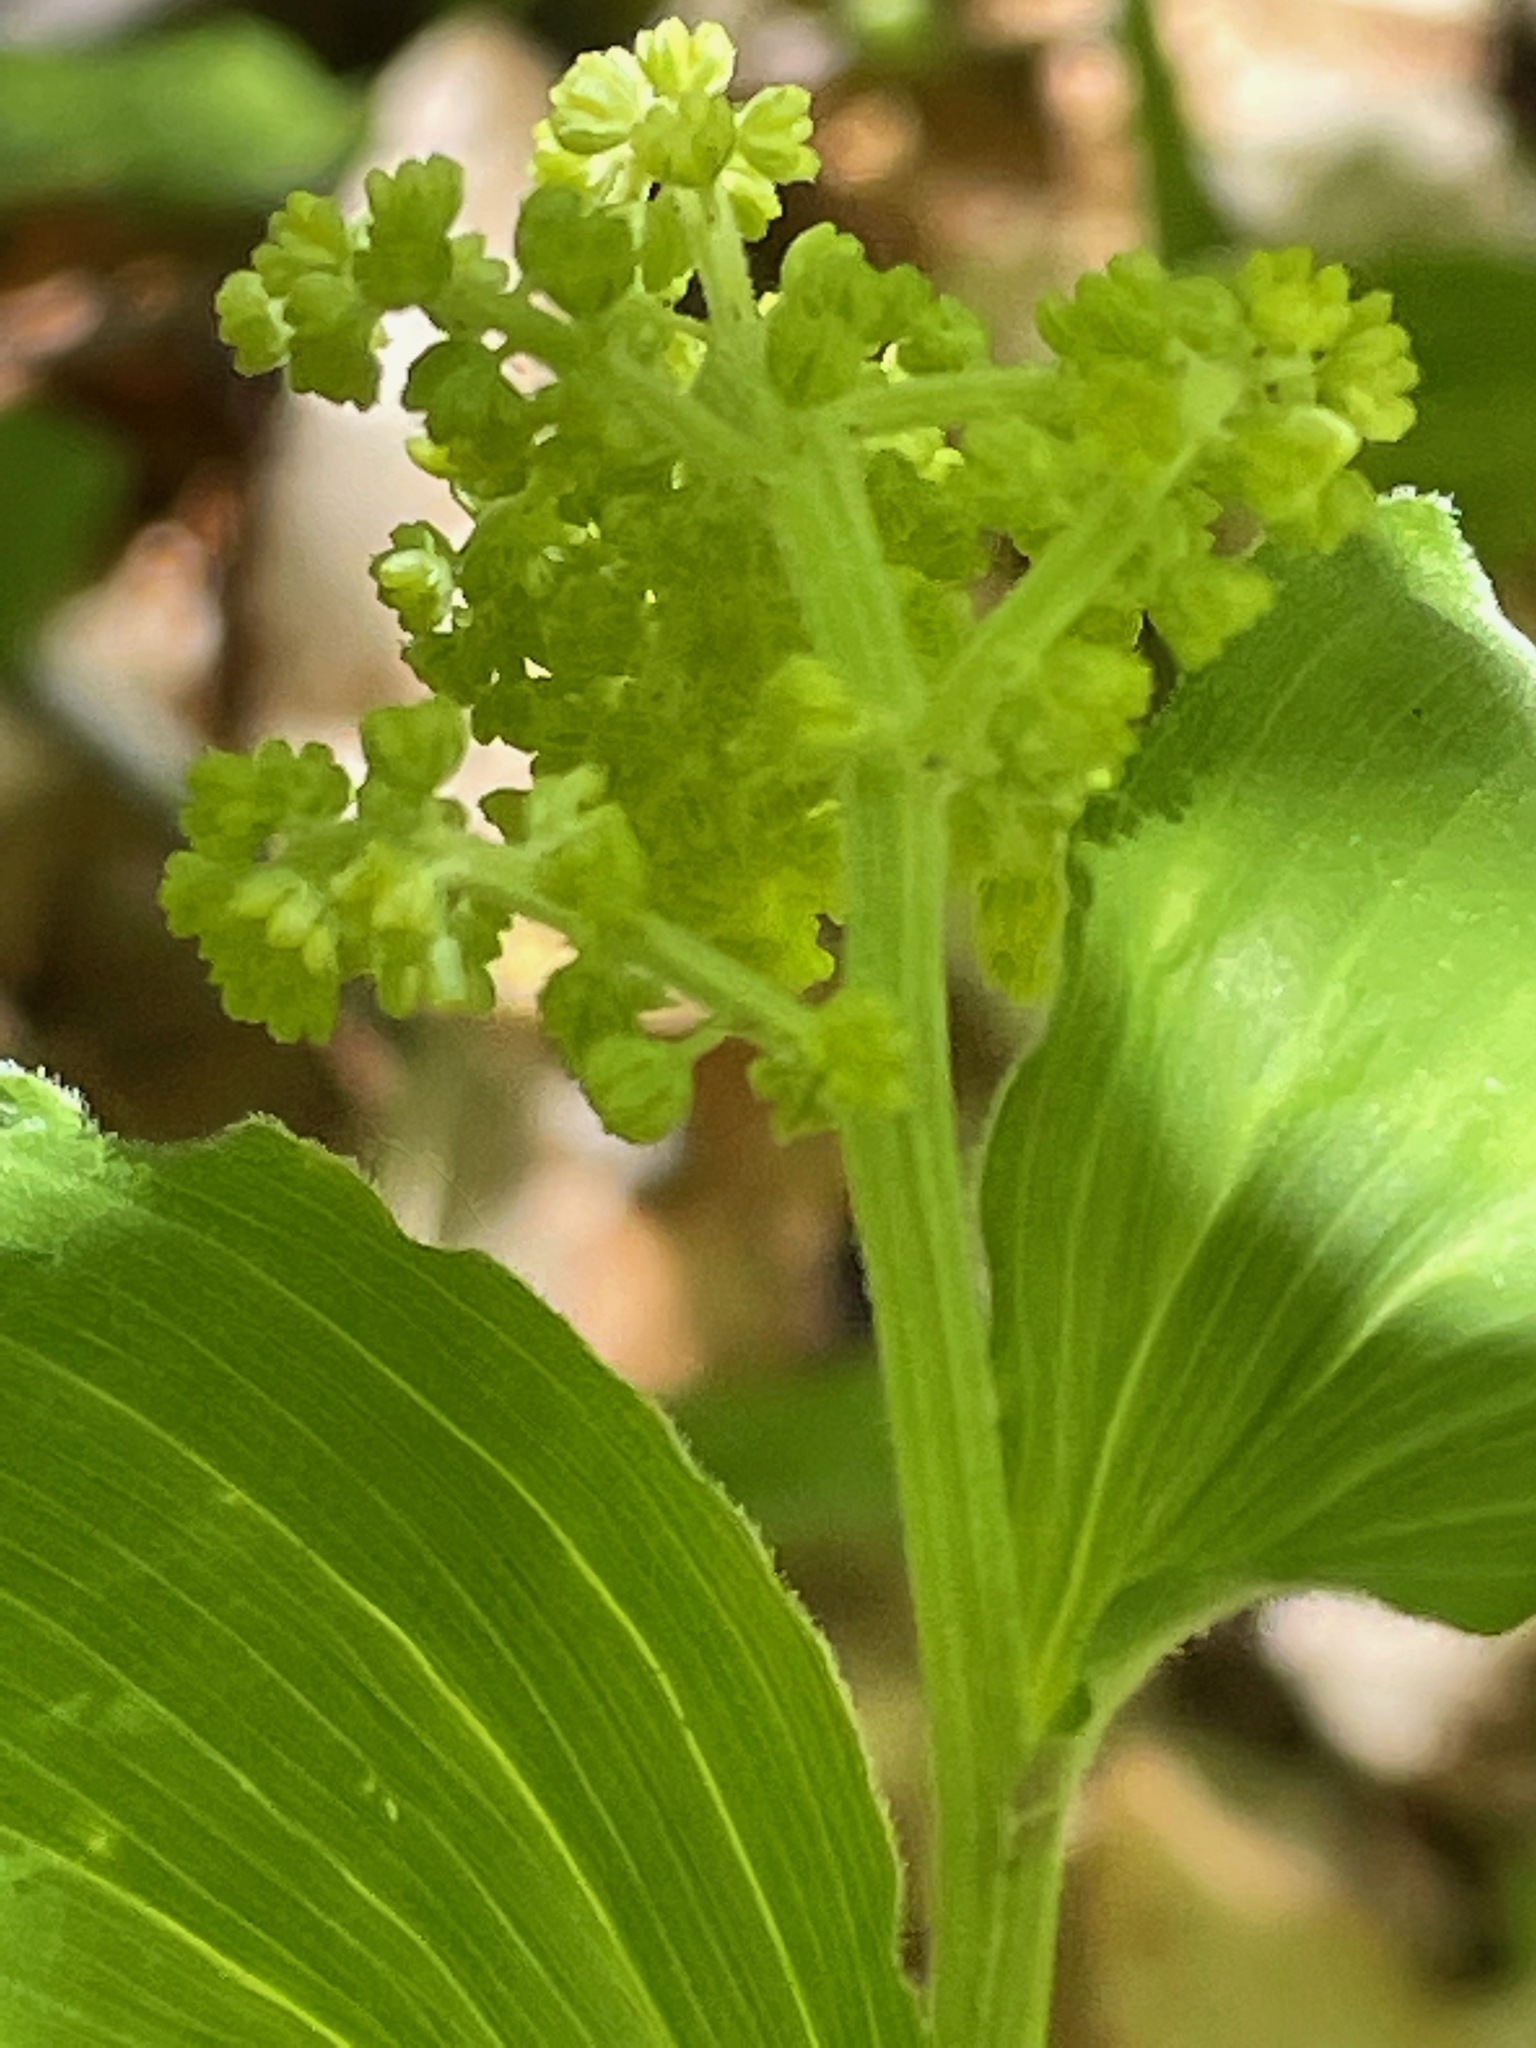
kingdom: Plantae
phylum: Tracheophyta
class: Liliopsida
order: Asparagales
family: Asparagaceae
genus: Maianthemum
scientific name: Maianthemum racemosum
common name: False spikenard
